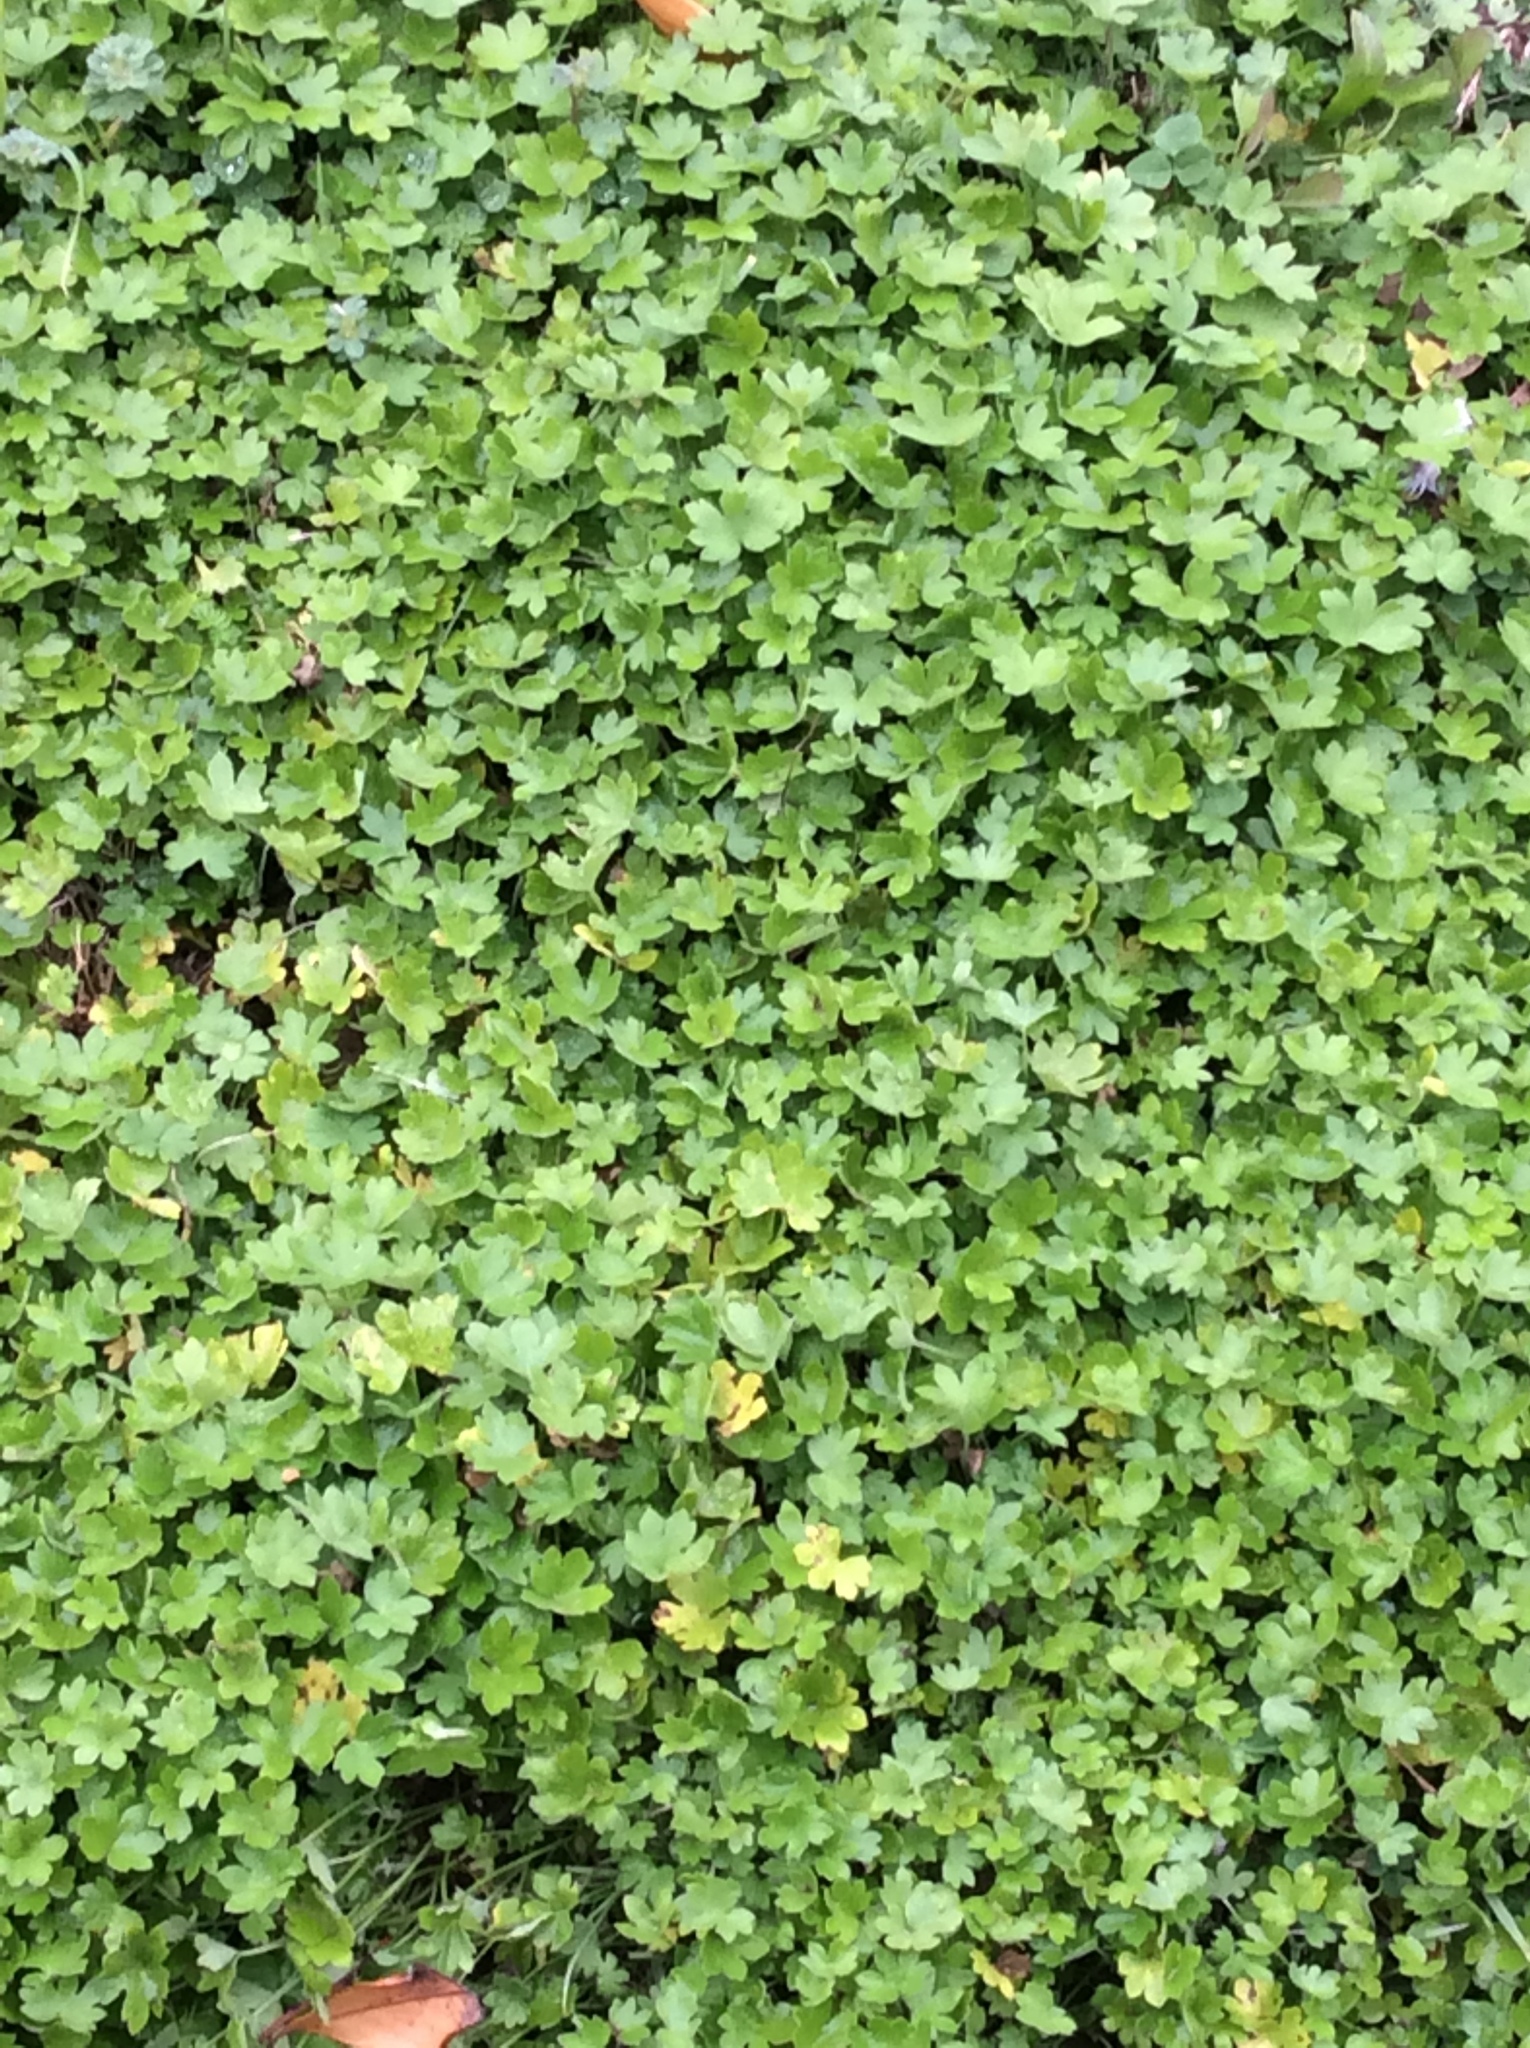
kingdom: Plantae
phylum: Tracheophyta
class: Magnoliopsida
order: Apiales
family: Apiaceae
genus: Bowlesia
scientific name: Bowlesia incana
